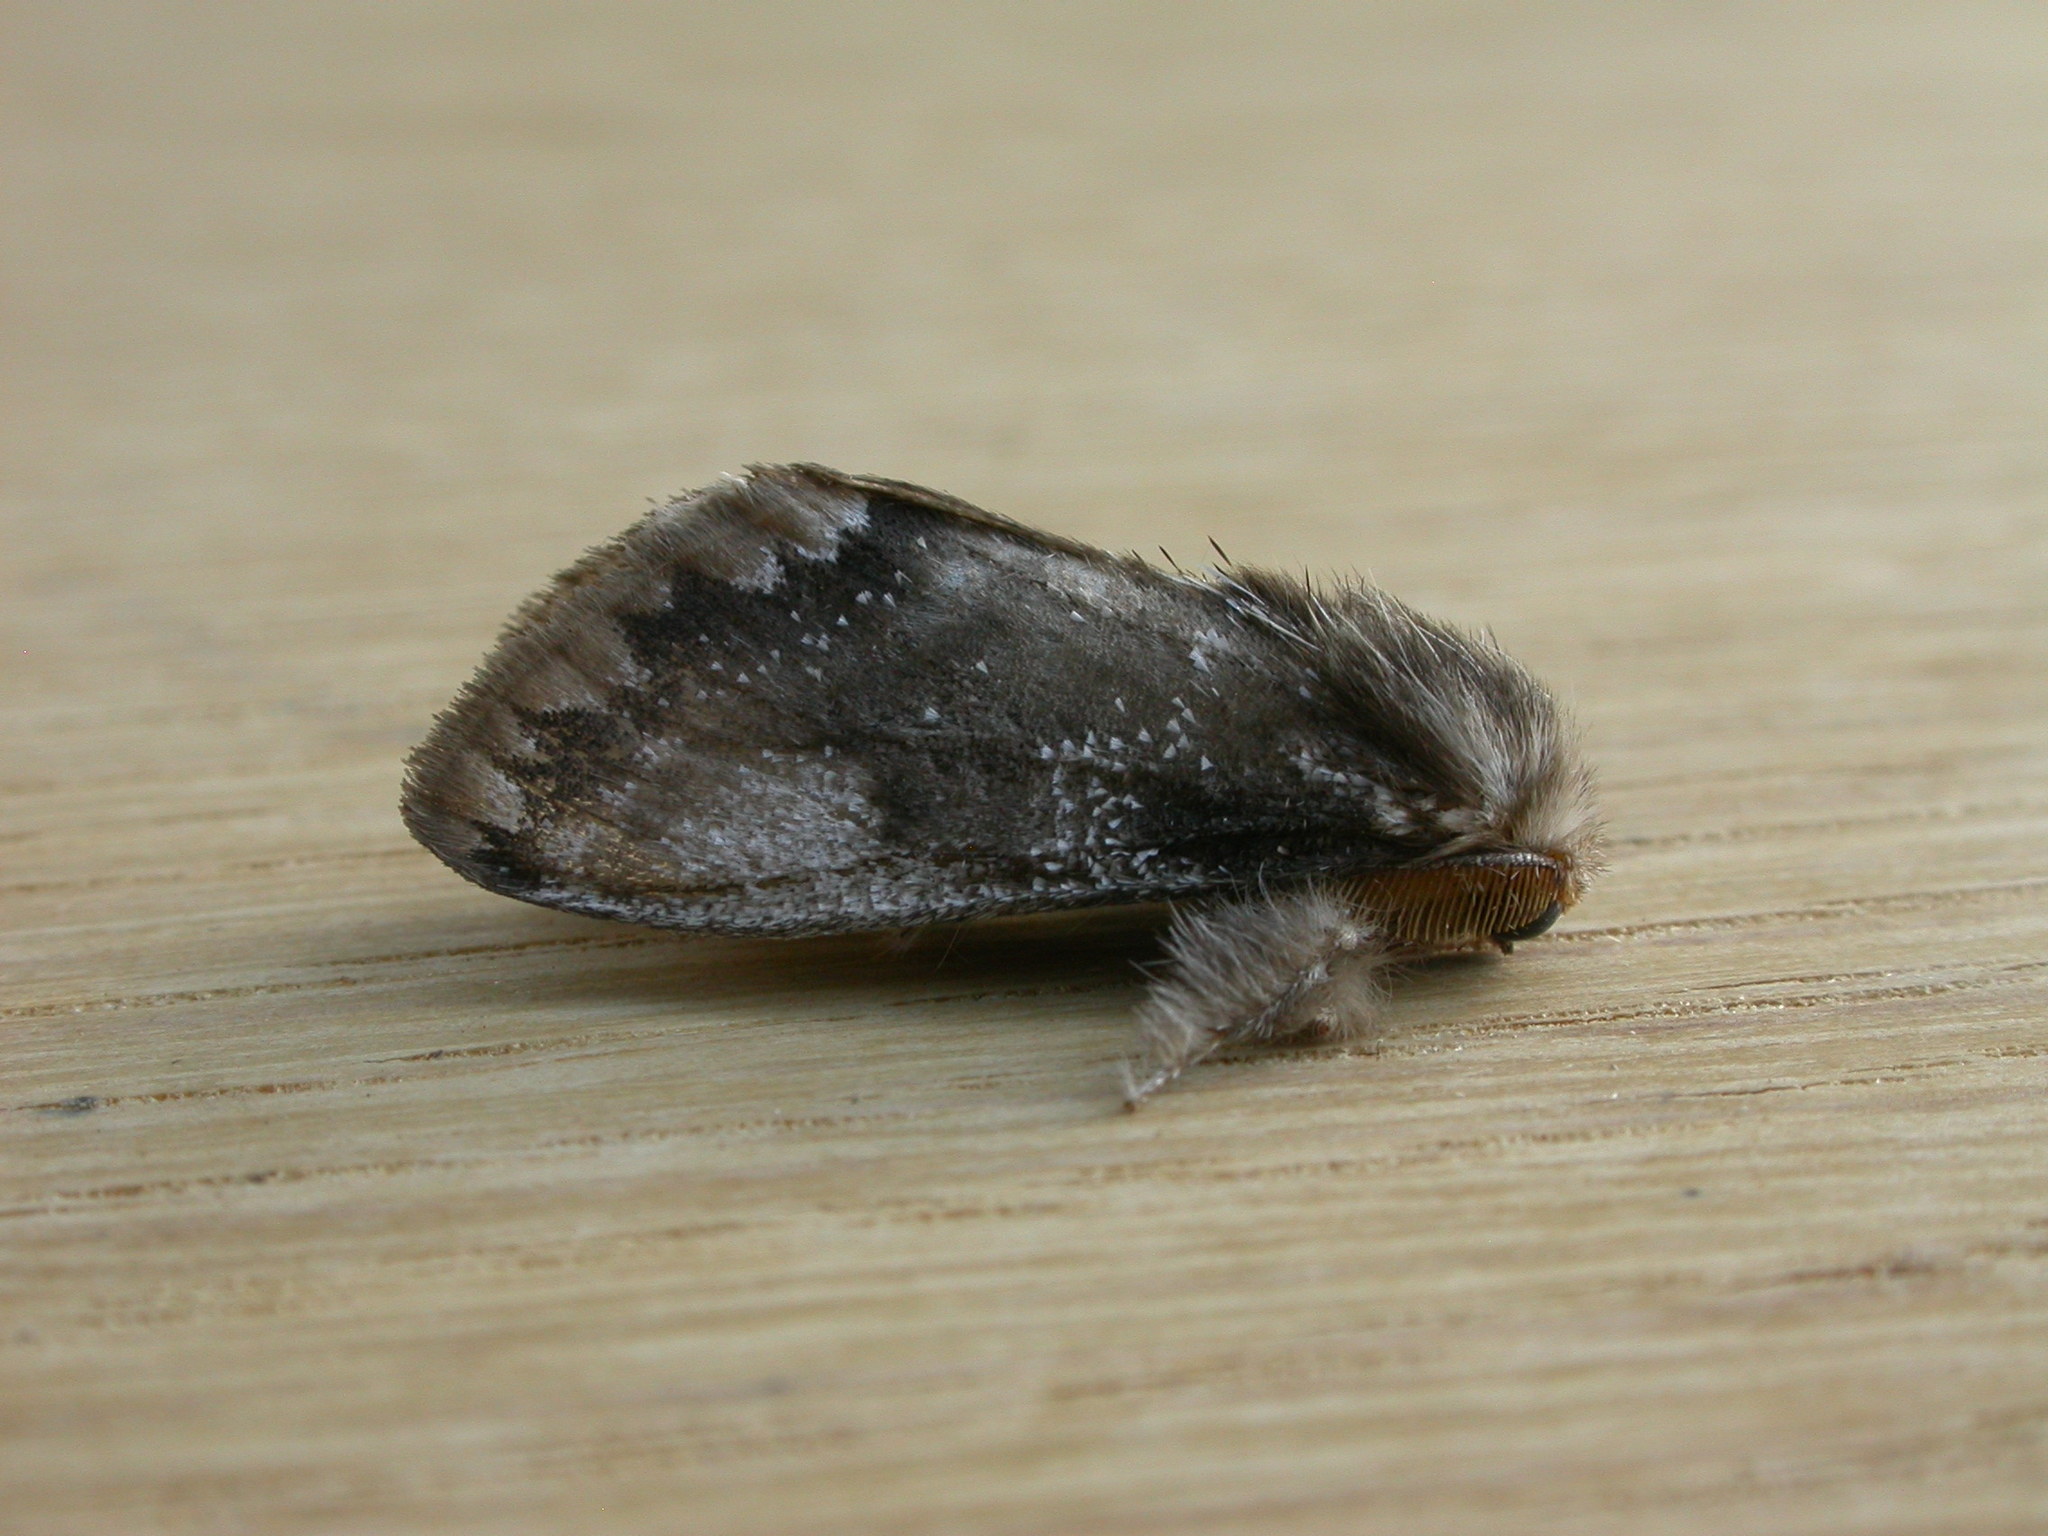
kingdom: Animalia
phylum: Arthropoda
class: Insecta
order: Lepidoptera
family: Erebidae
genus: Euproctis
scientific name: Euproctis
